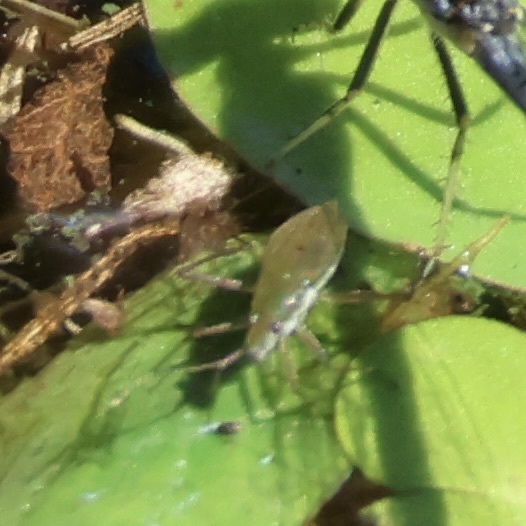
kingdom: Animalia
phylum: Arthropoda
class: Insecta
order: Hemiptera
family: Mesoveliidae
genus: Mesovelia
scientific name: Mesovelia mulsanti
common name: Water treaders
